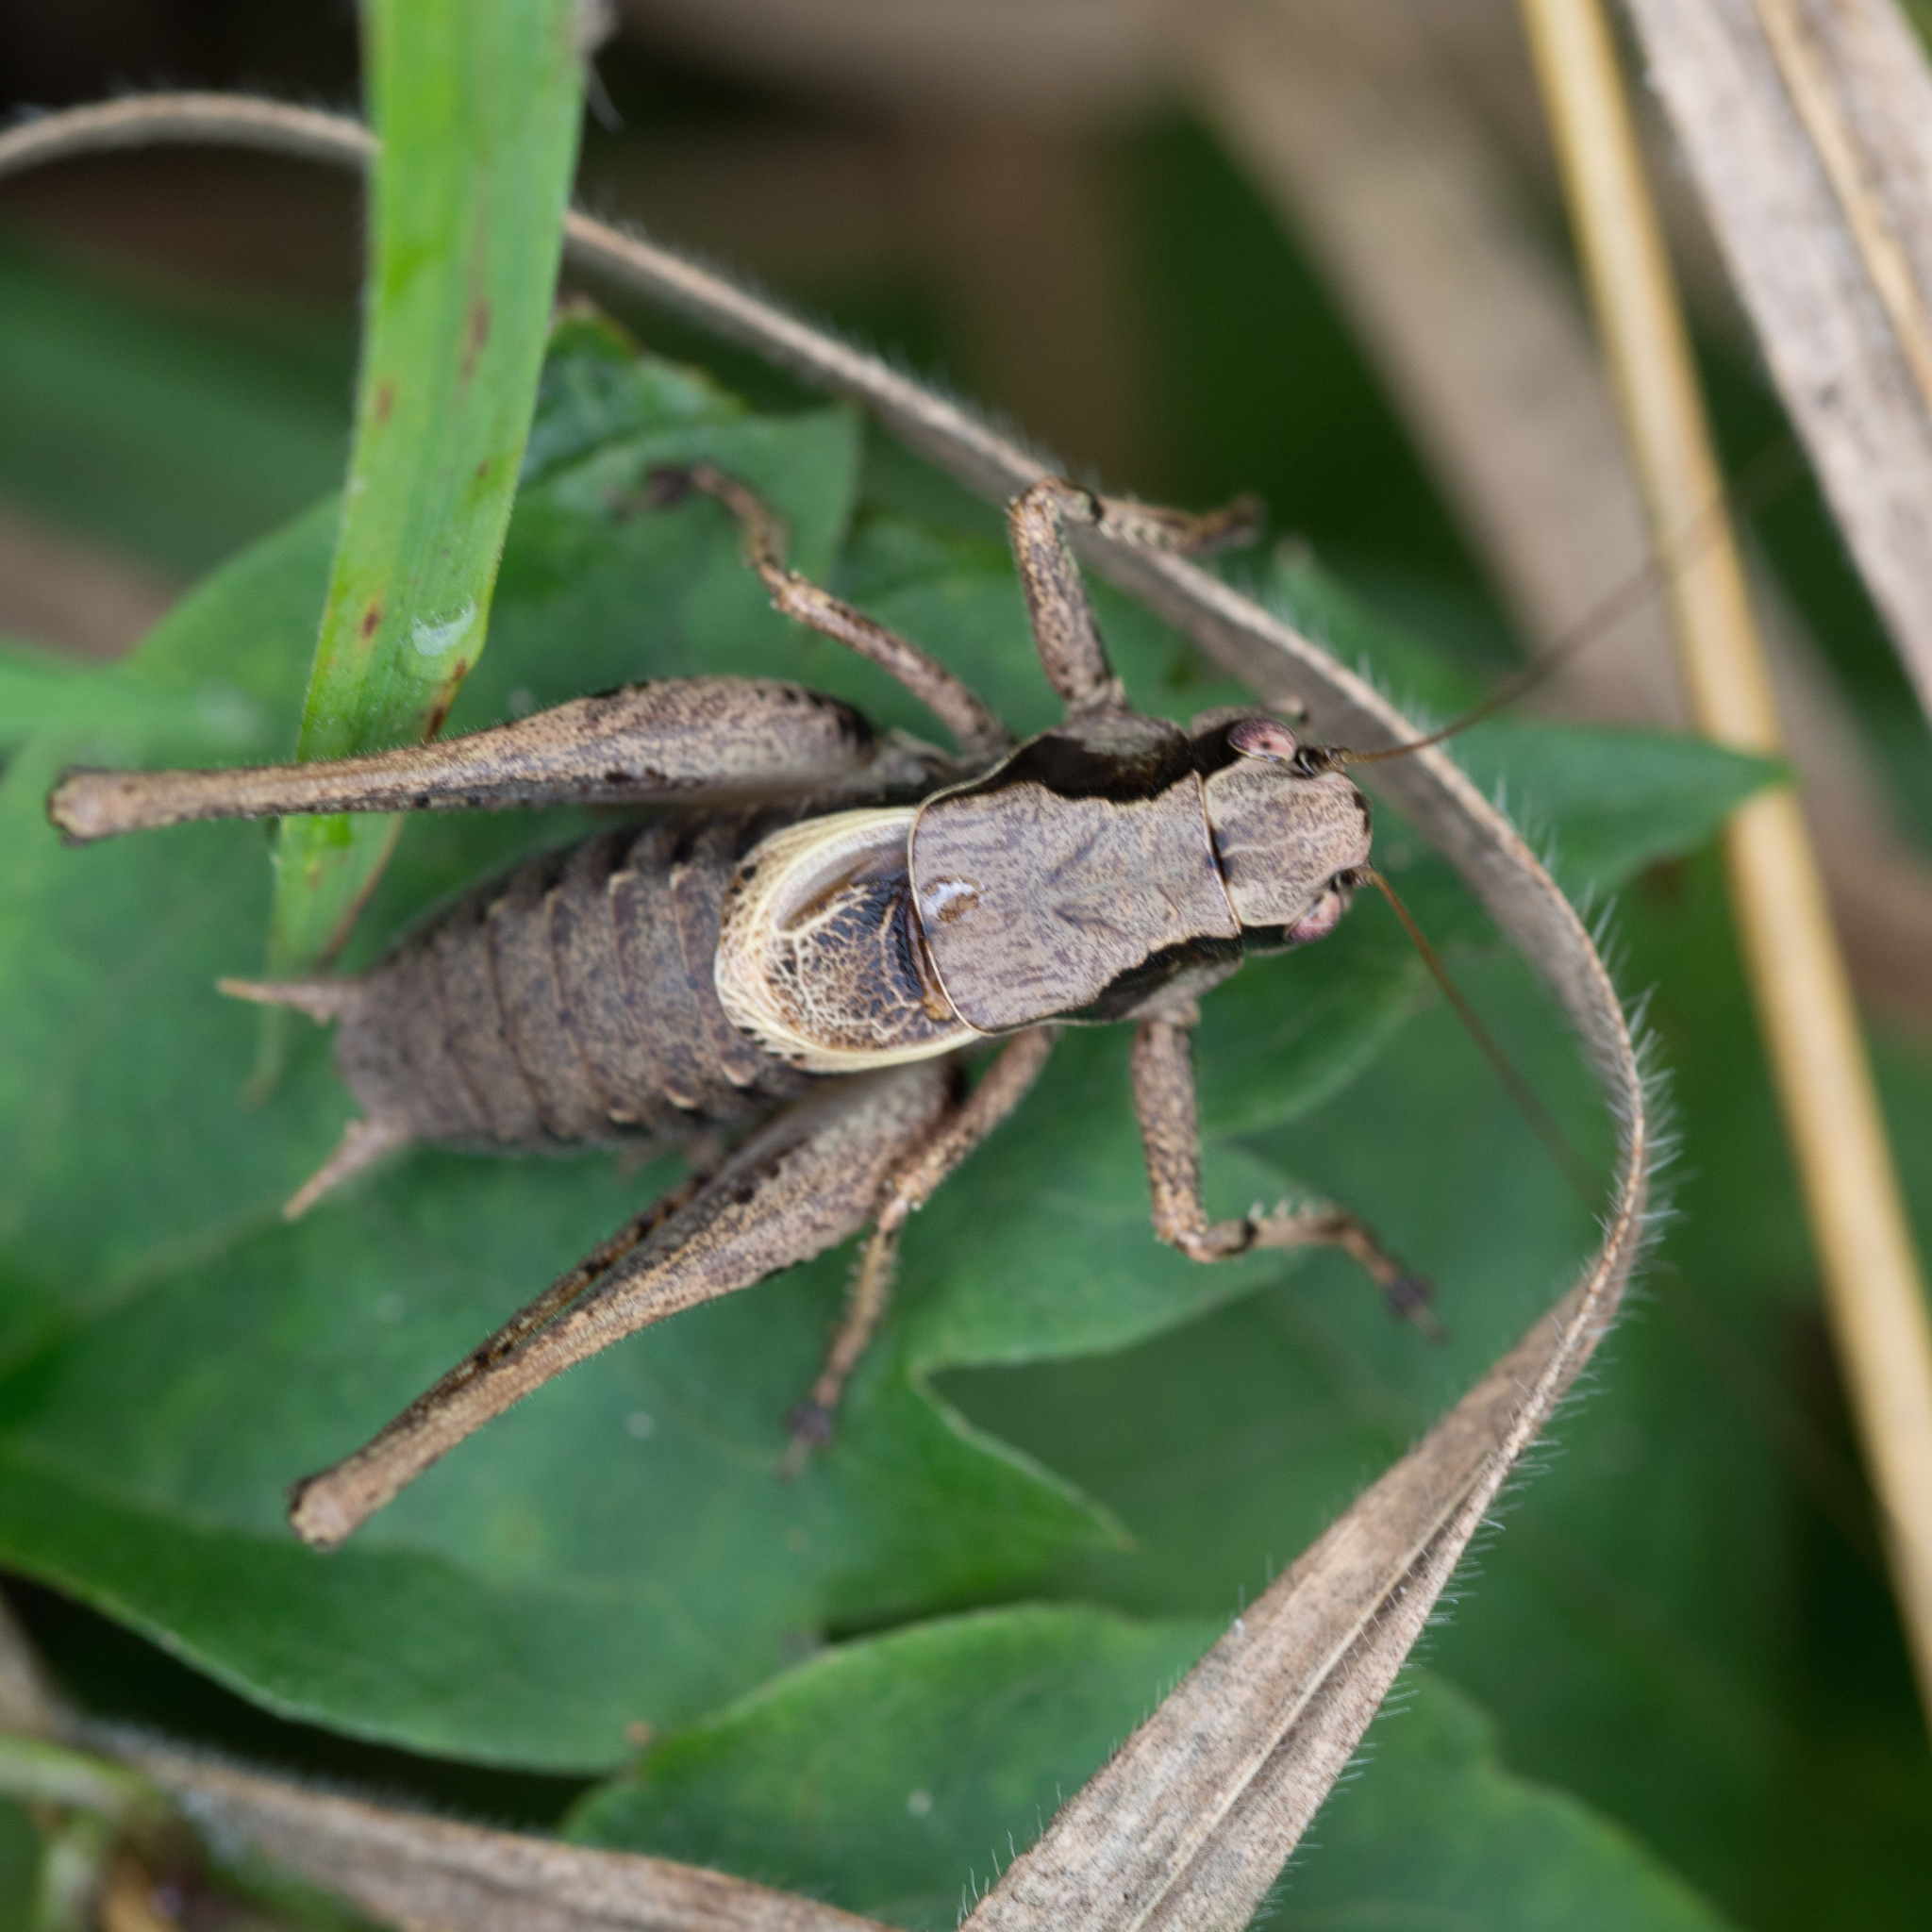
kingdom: Animalia
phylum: Arthropoda
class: Insecta
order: Orthoptera
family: Tettigoniidae
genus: Pholidoptera
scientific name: Pholidoptera griseoaptera
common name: Dark bush-cricket
